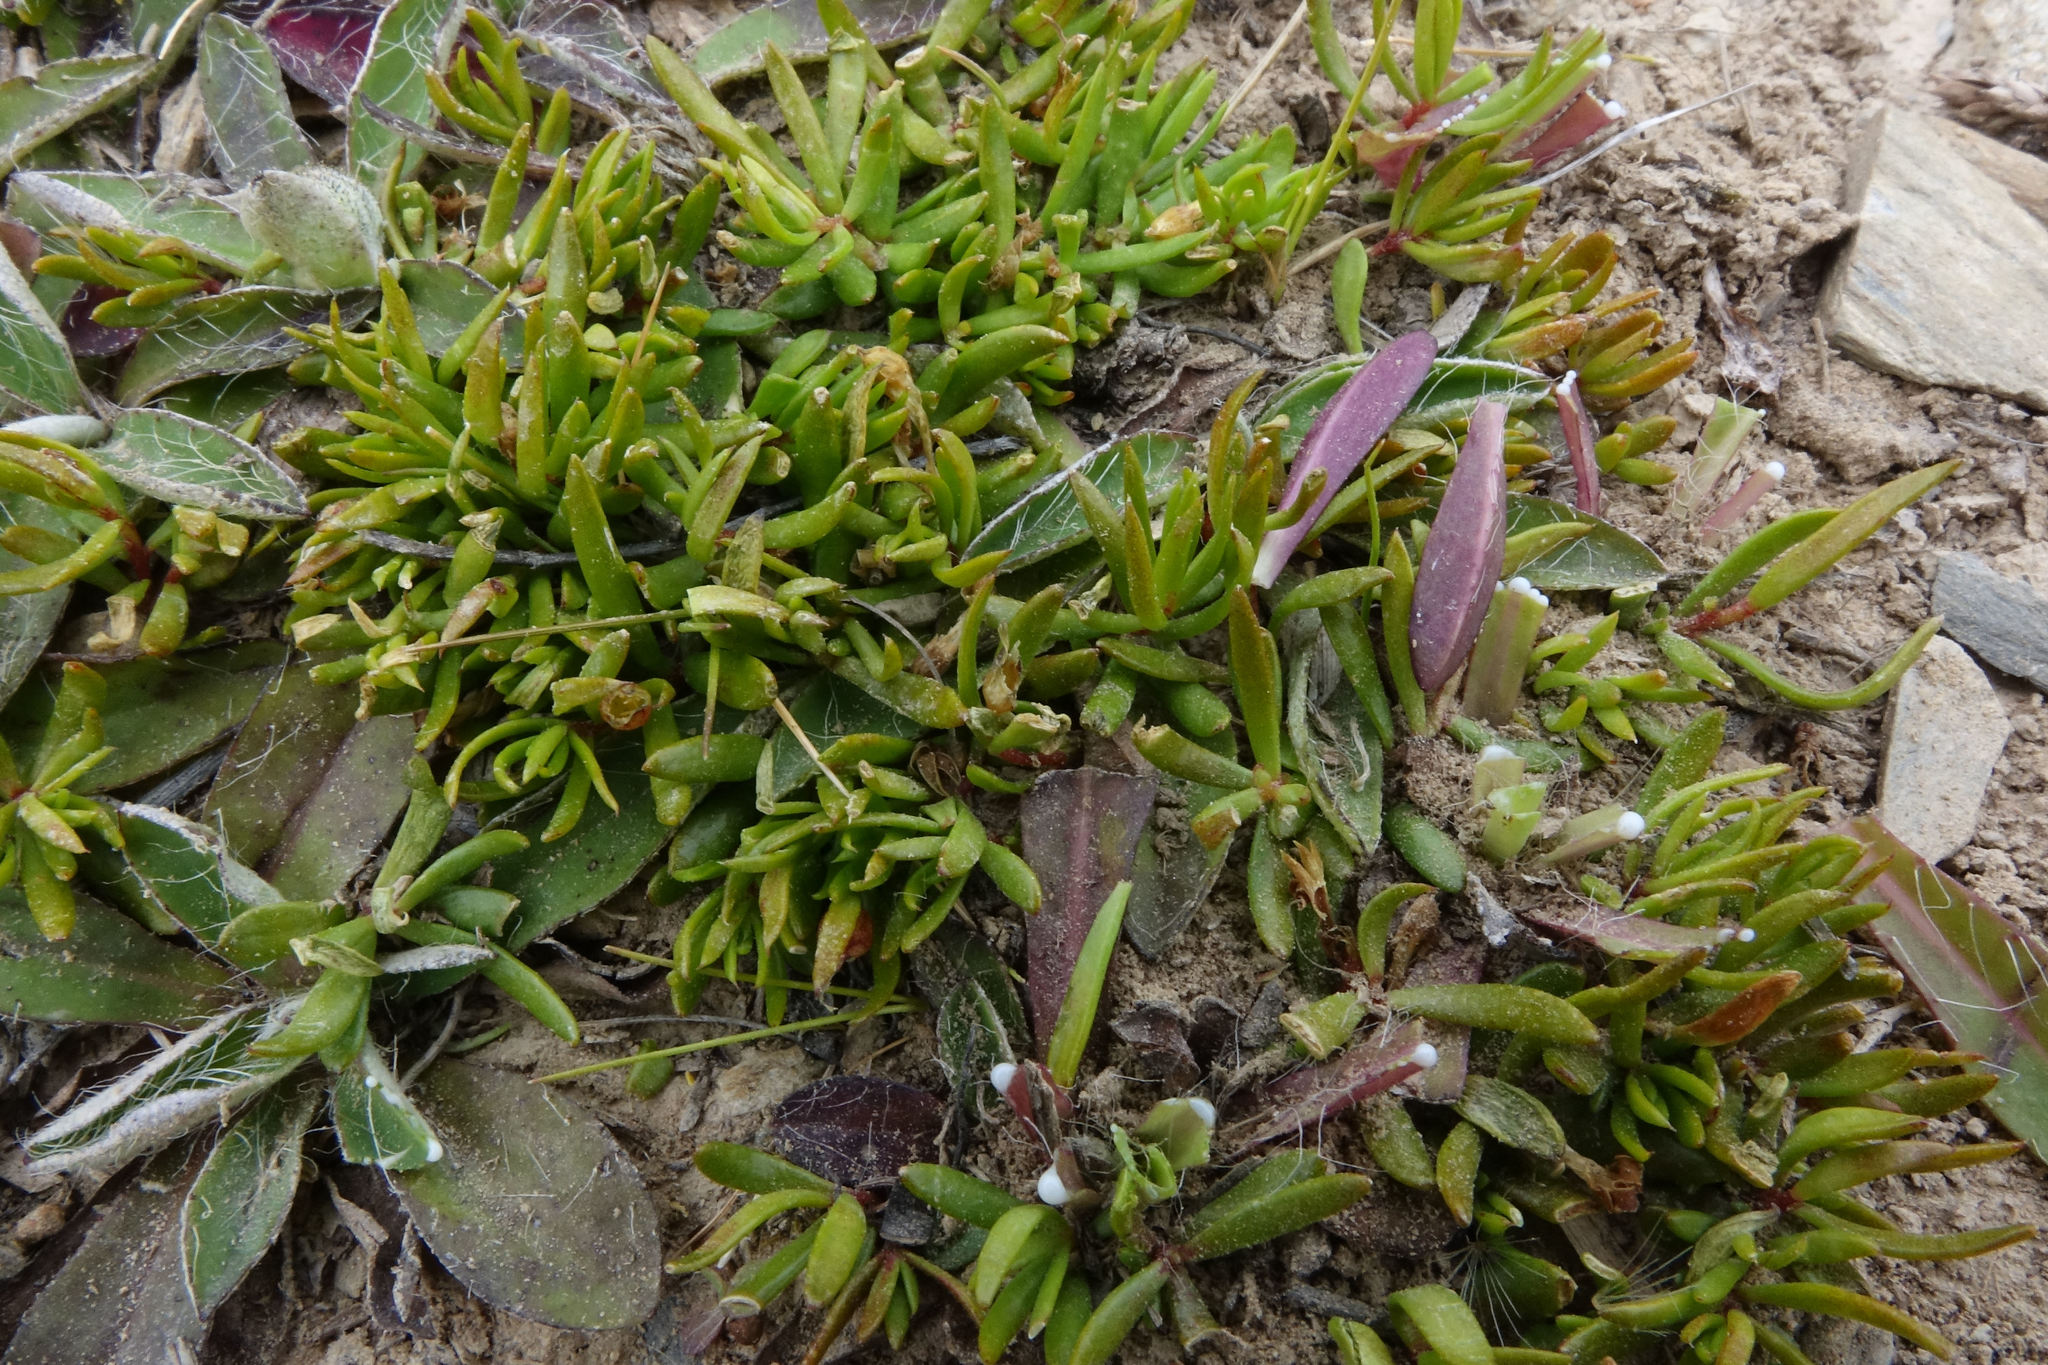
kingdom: Plantae
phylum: Tracheophyta
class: Magnoliopsida
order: Celastrales
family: Celastraceae
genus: Stackhousia
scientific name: Stackhousia minima
